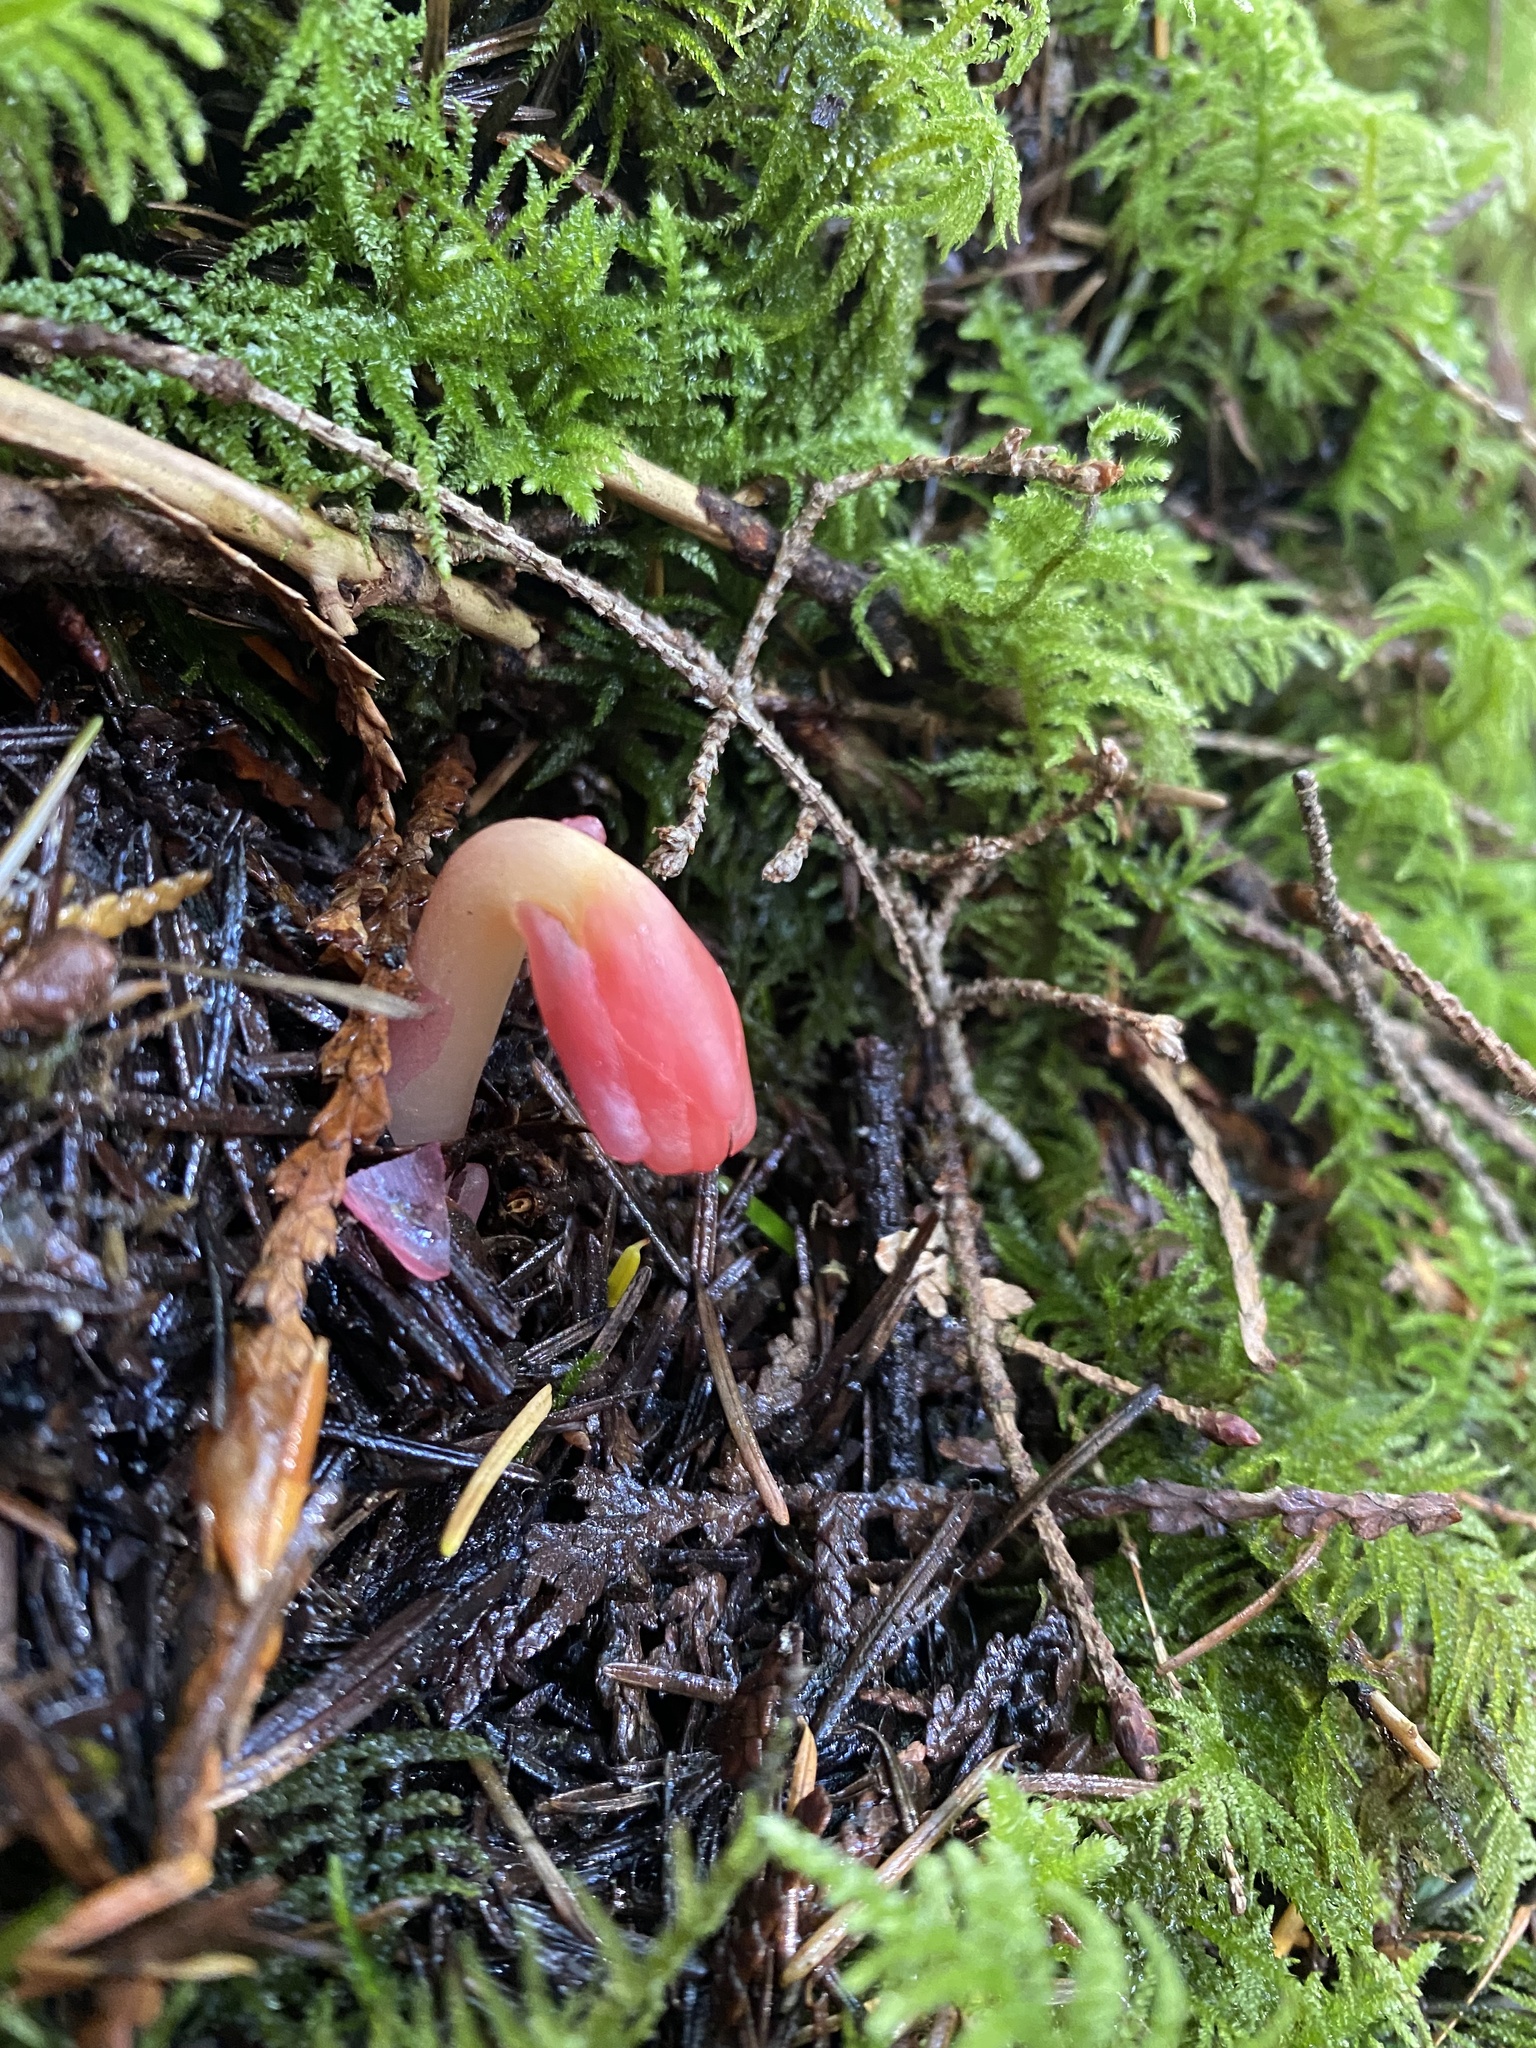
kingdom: Plantae
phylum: Tracheophyta
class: Magnoliopsida
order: Ericales
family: Ericaceae
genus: Hypopitys
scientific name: Hypopitys monotropa
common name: Yellow bird's-nest
